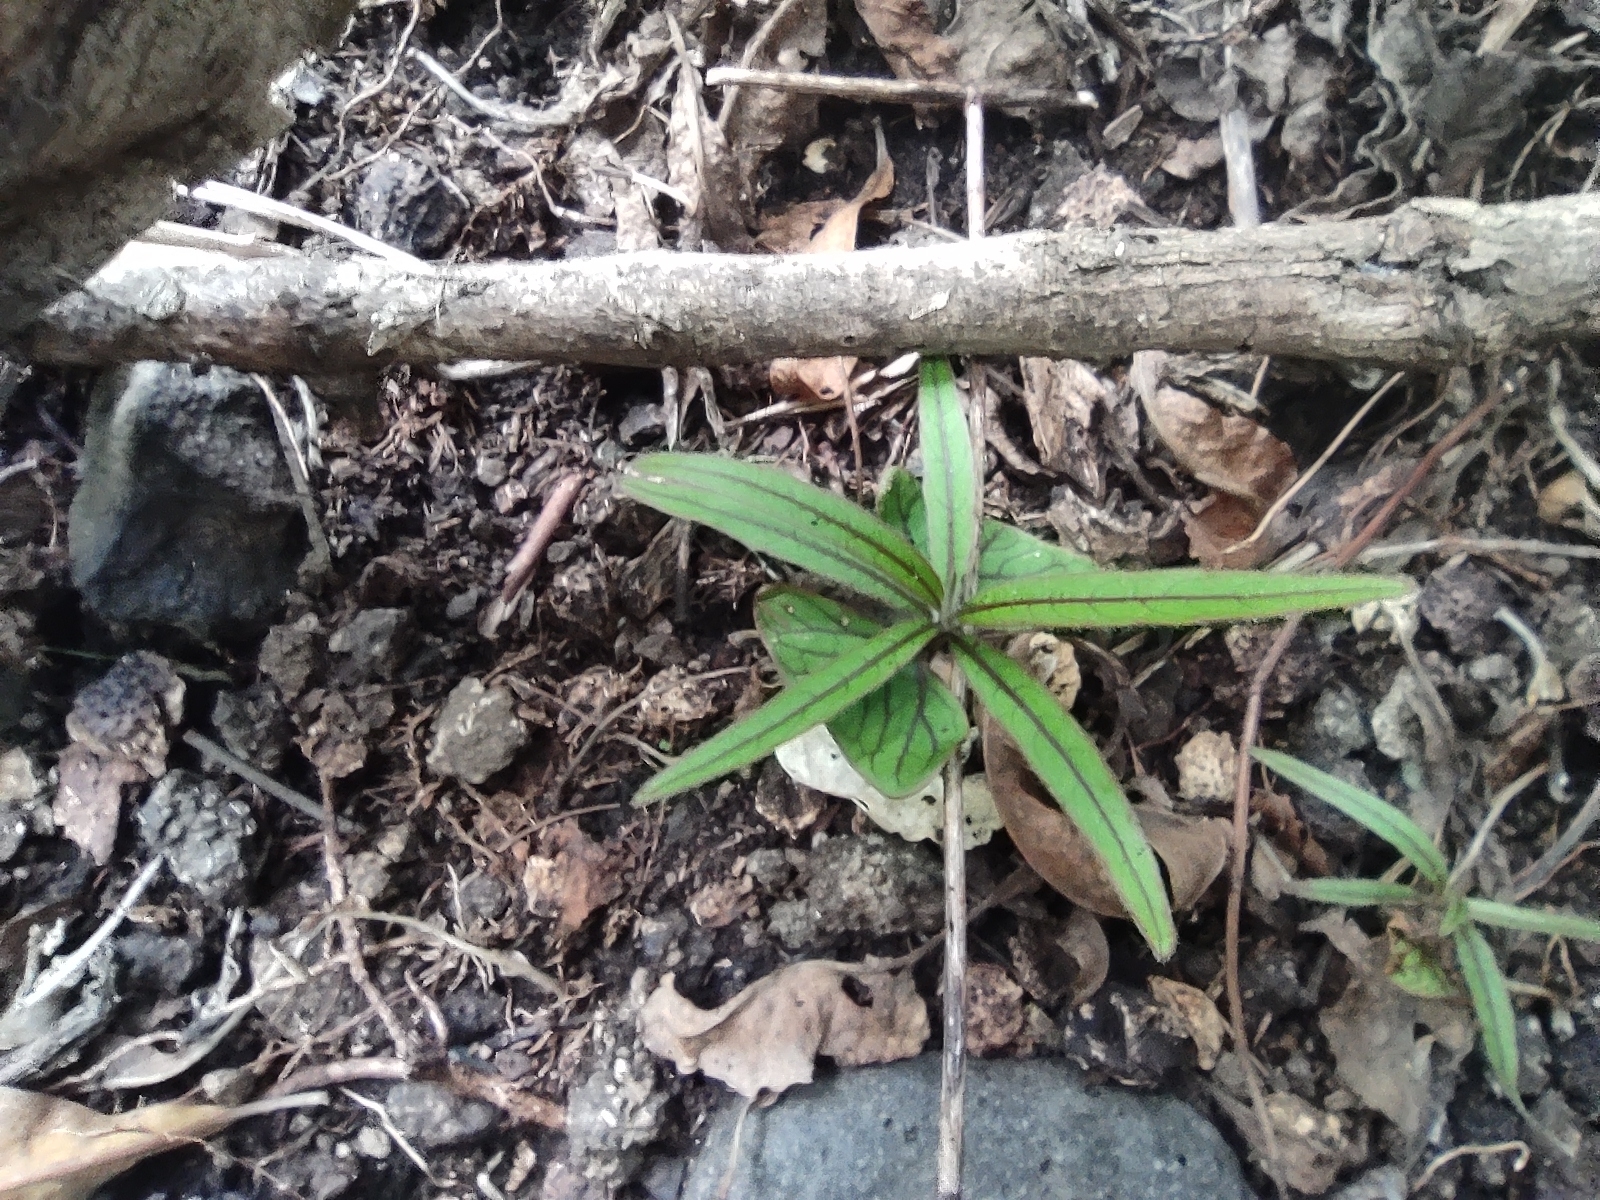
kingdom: Plantae
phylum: Tracheophyta
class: Magnoliopsida
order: Myrtales
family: Combretaceae
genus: Terminalia
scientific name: Terminalia bentzoe
